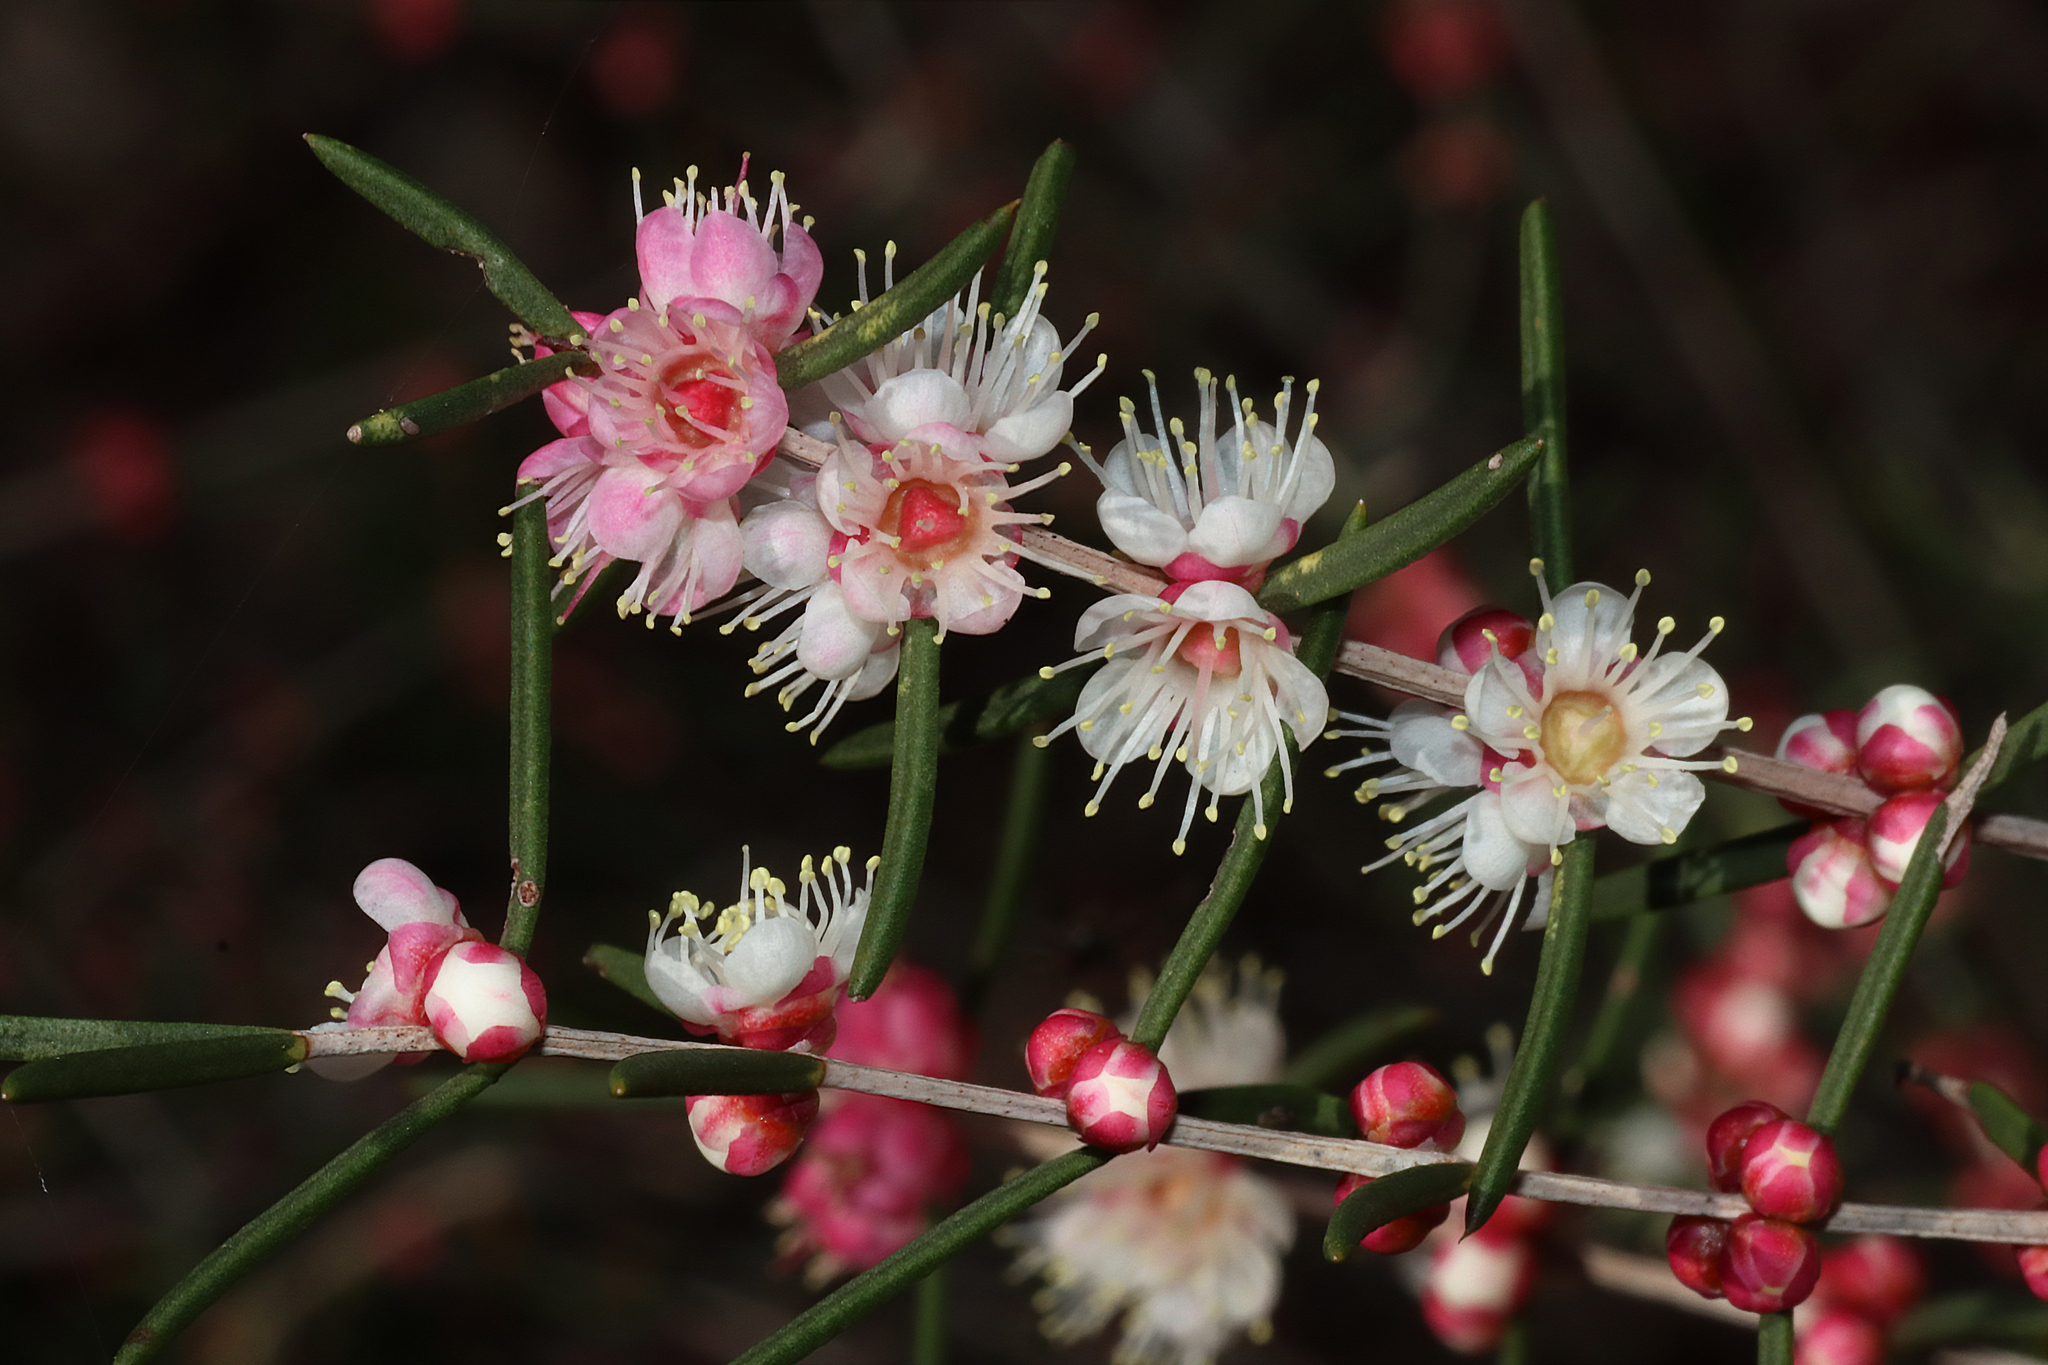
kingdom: Plantae
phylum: Tracheophyta
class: Magnoliopsida
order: Myrtales
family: Myrtaceae
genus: Hypocalymma
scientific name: Hypocalymma angustifolium
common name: White myrtle
